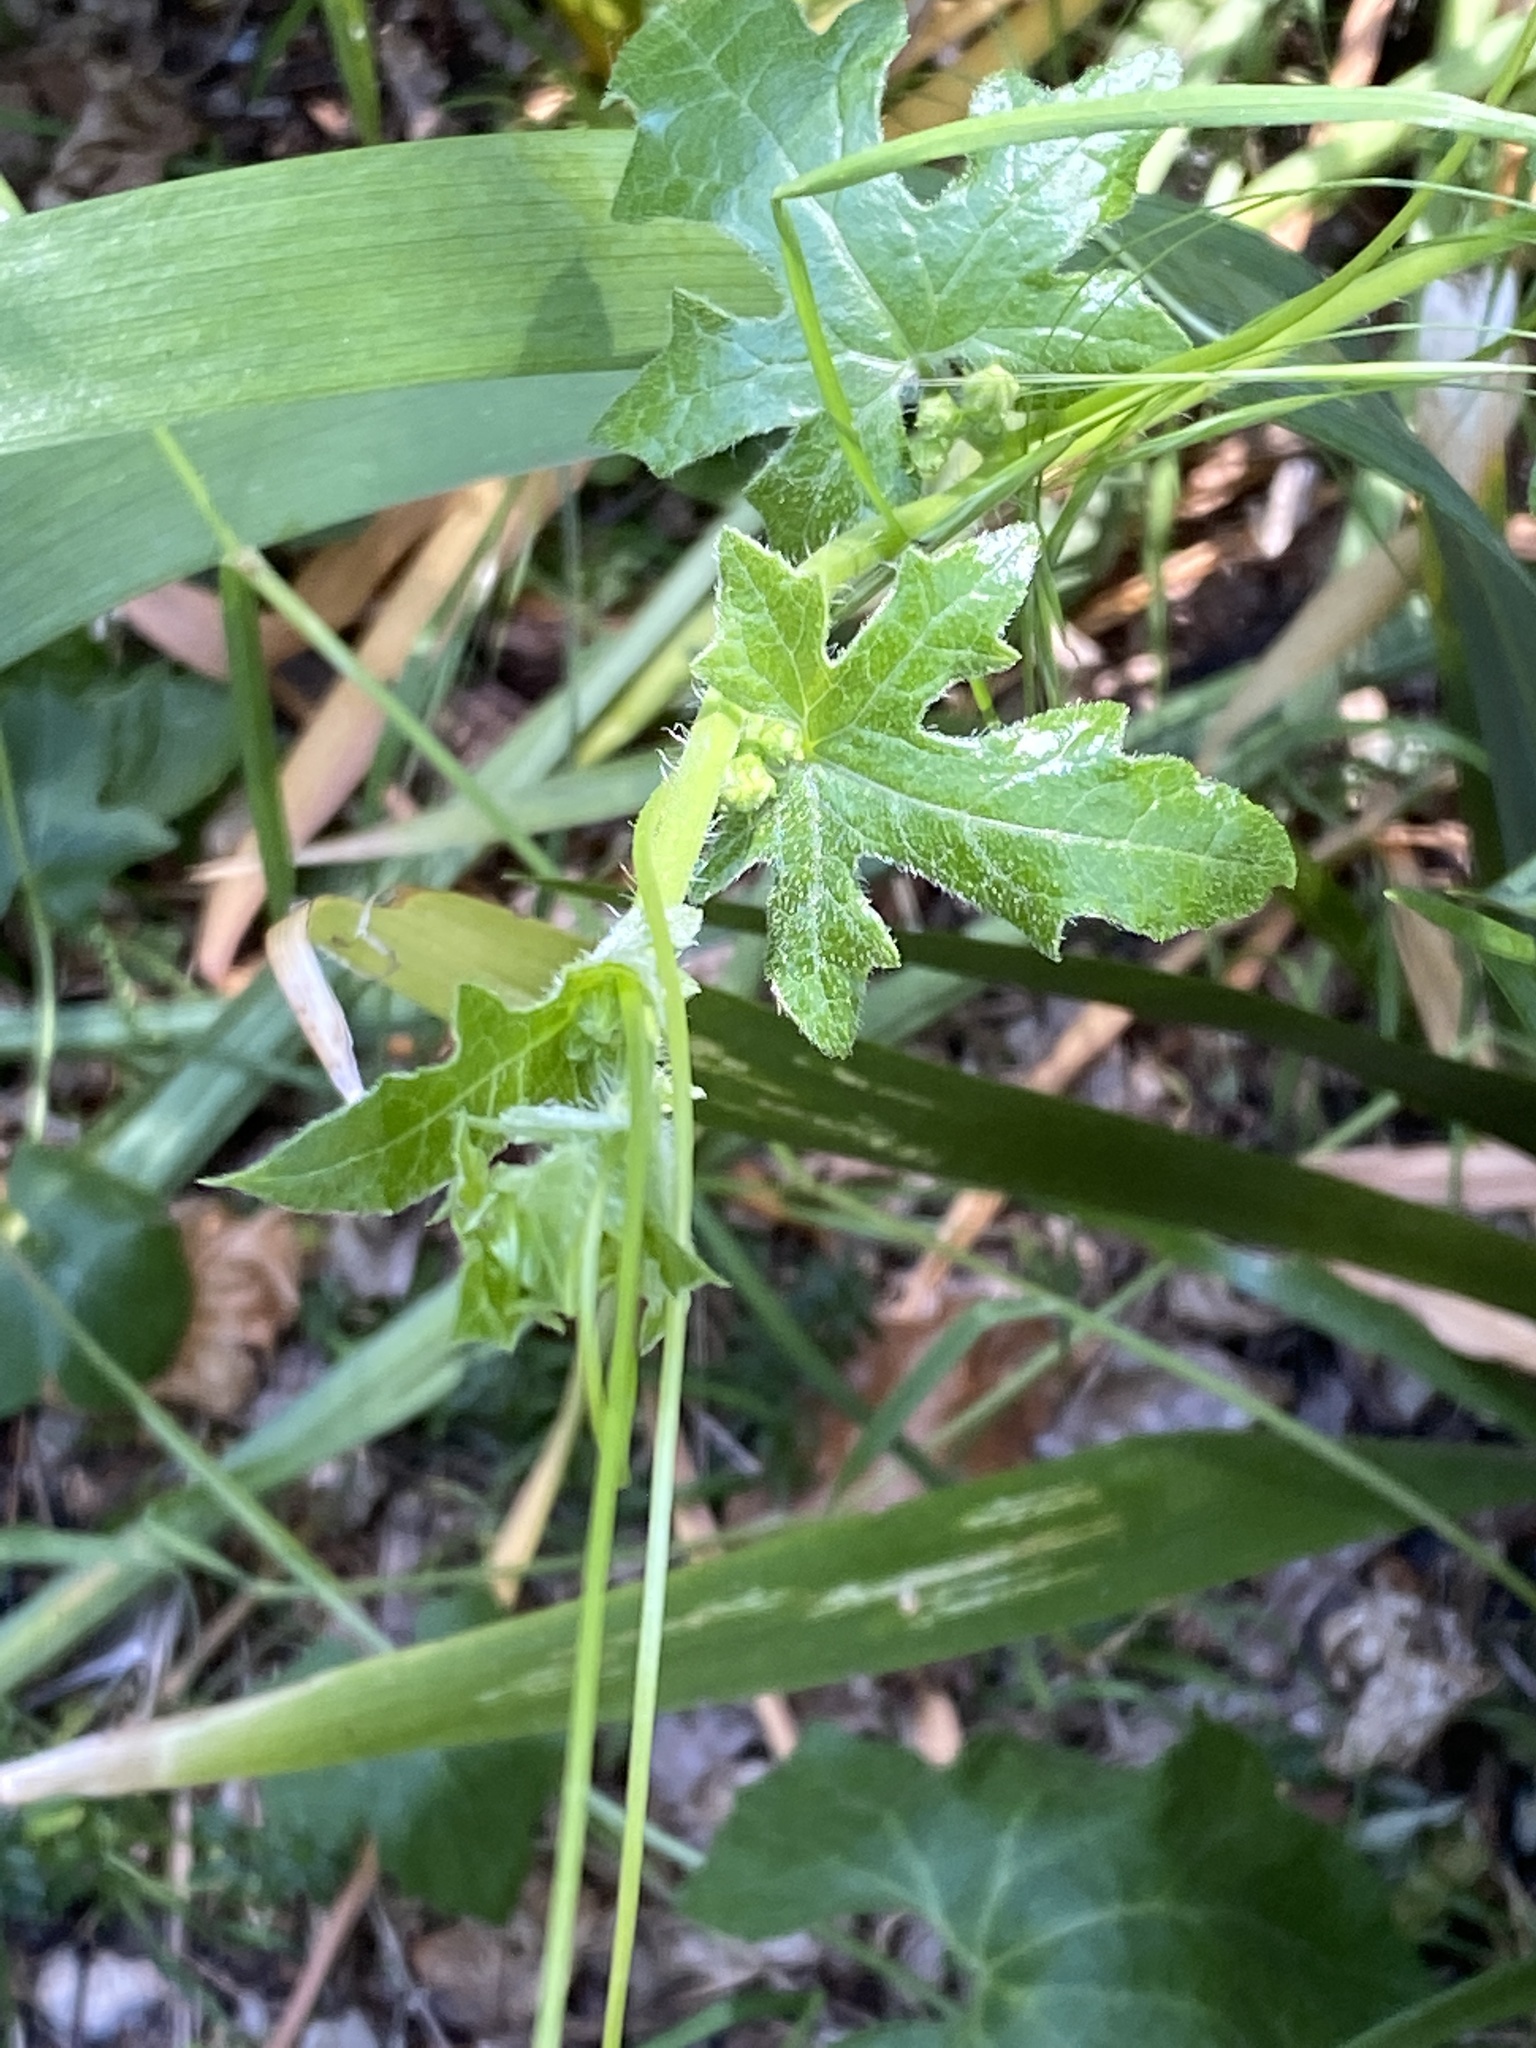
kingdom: Plantae
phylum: Tracheophyta
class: Magnoliopsida
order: Cucurbitales
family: Cucurbitaceae
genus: Bryonia
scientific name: Bryonia cretica
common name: Cretan bryony
